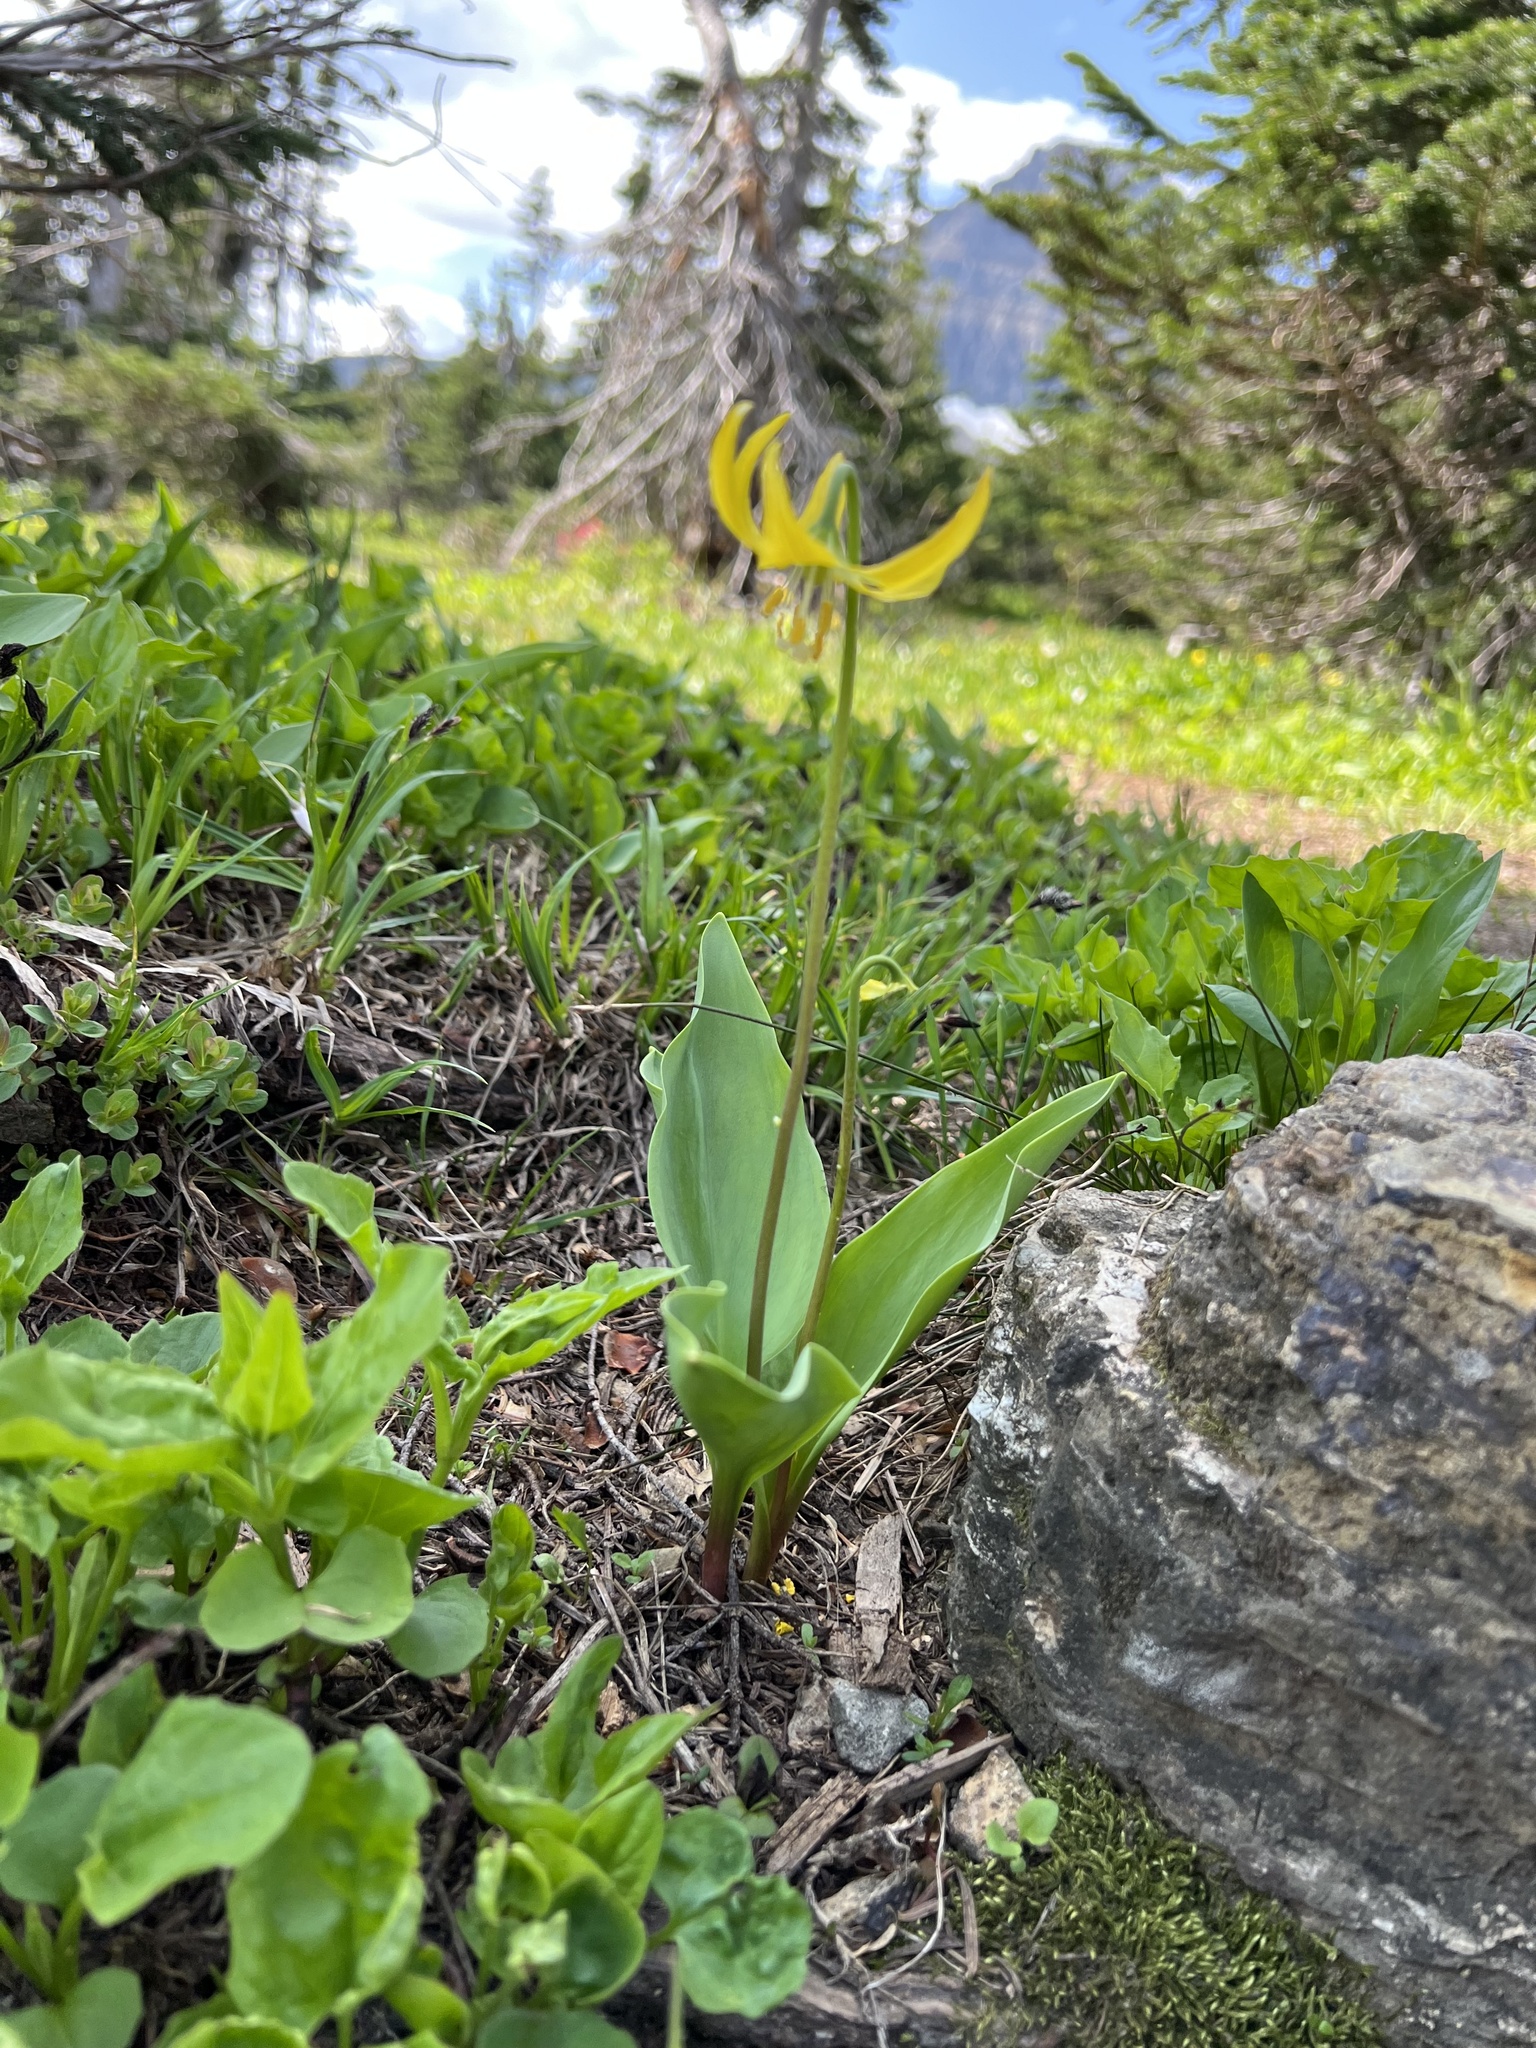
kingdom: Plantae
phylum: Tracheophyta
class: Liliopsida
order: Liliales
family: Liliaceae
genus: Erythronium
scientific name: Erythronium grandiflorum
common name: Avalanche-lily
